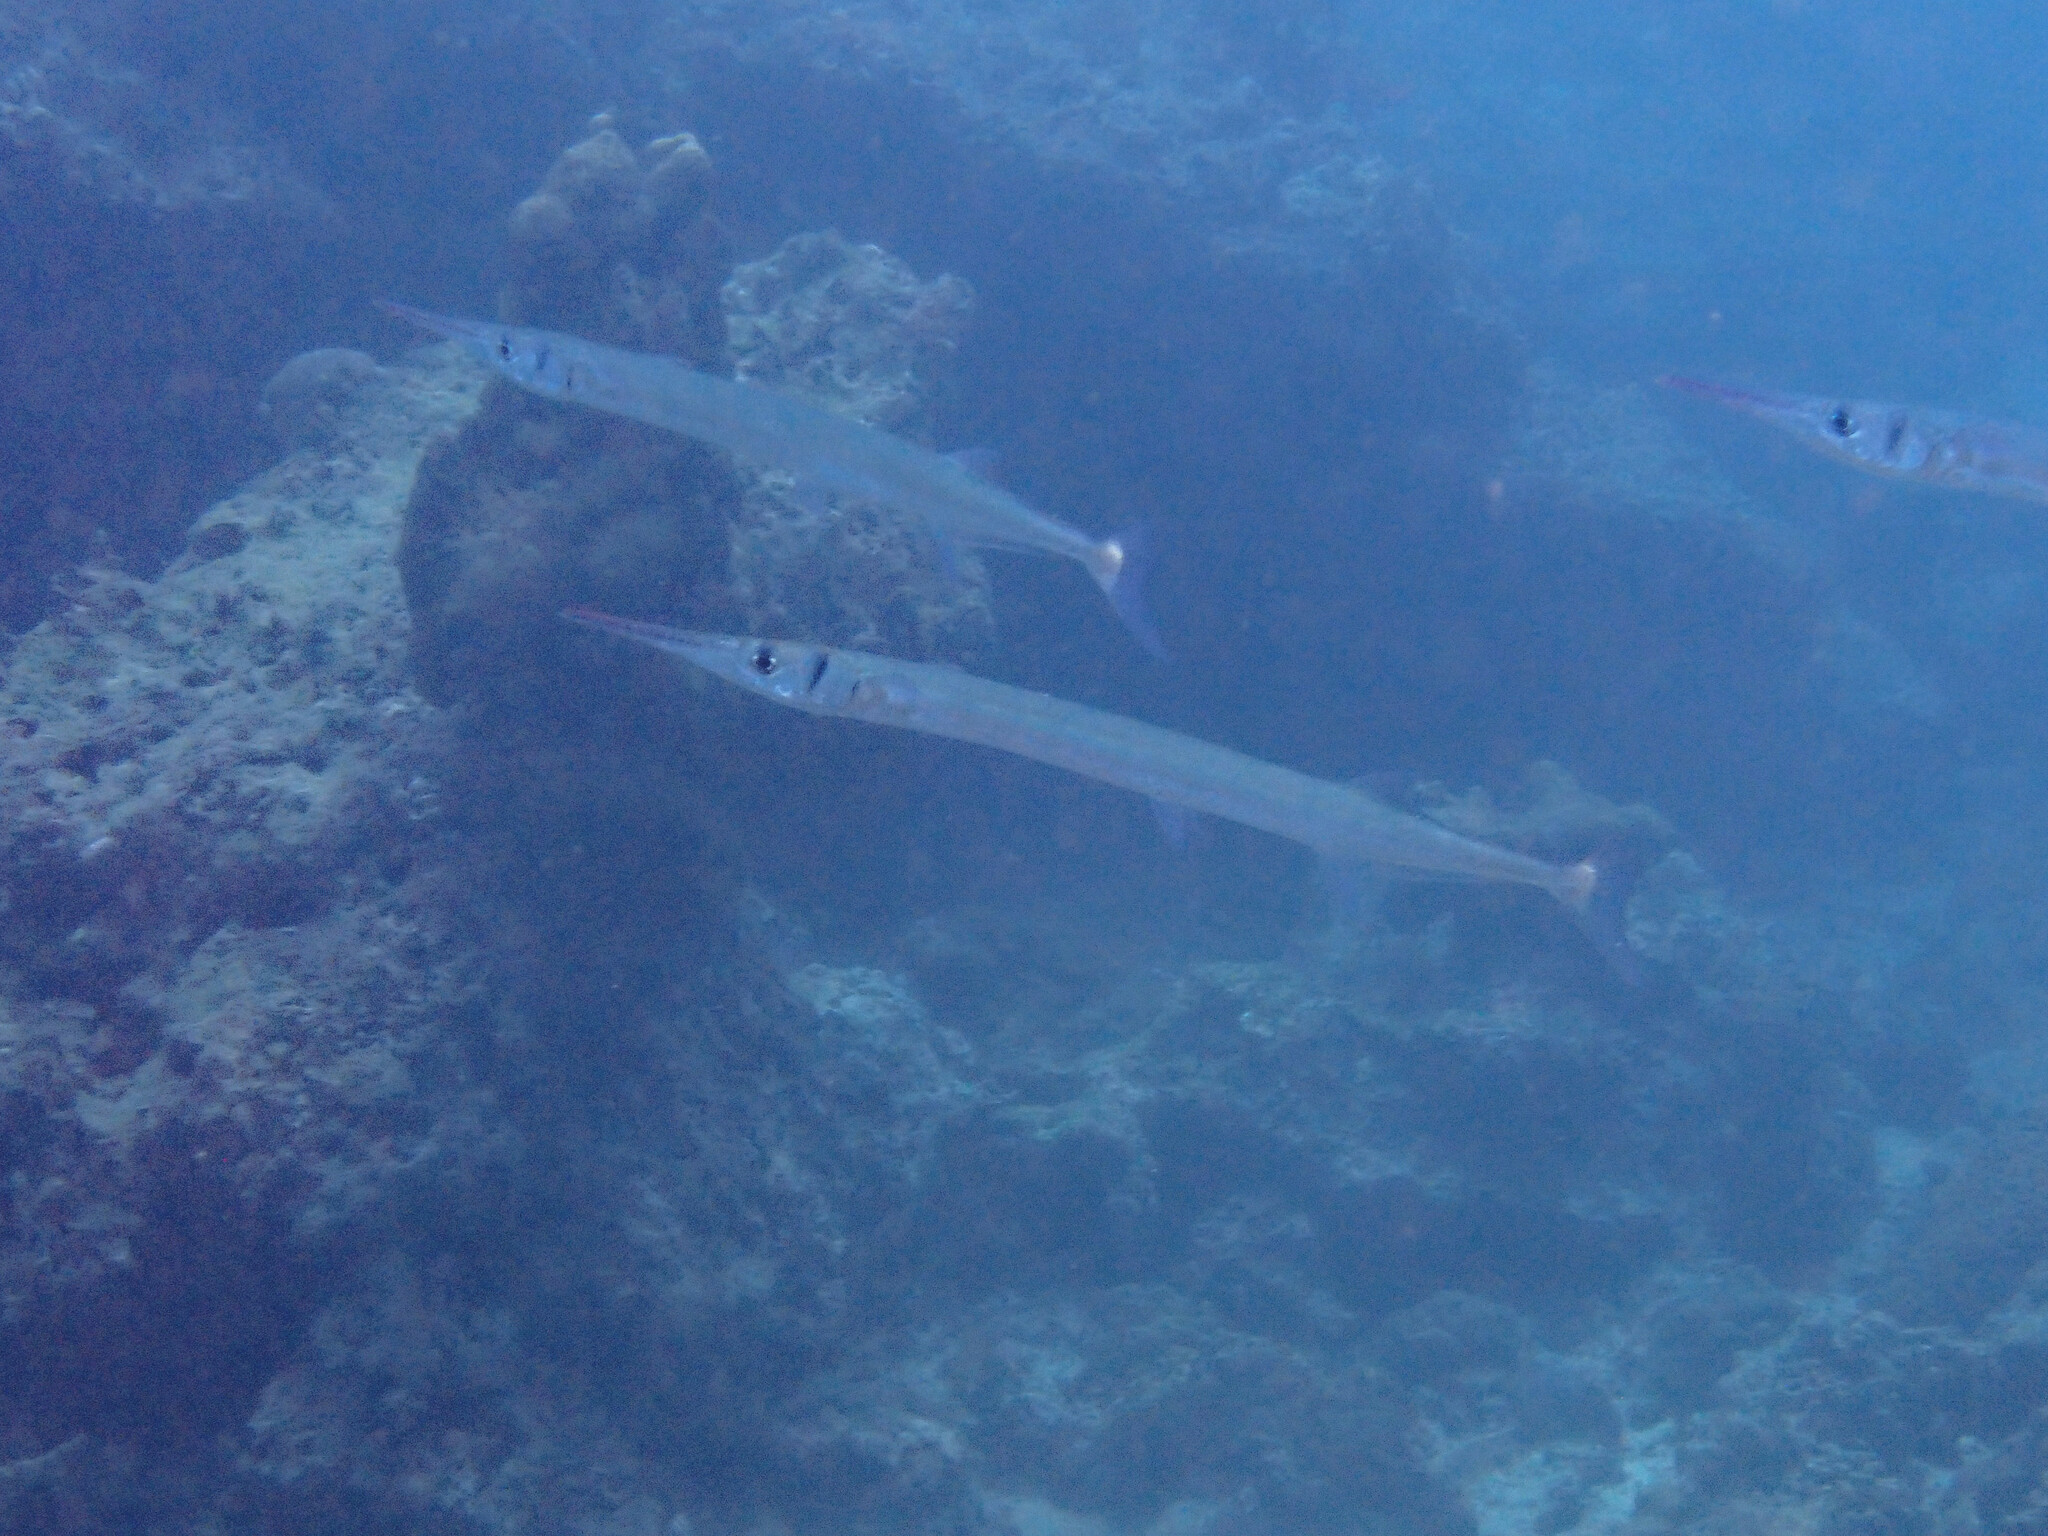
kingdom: Animalia
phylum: Chordata
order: Beloniformes
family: Belonidae
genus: Tylosurus
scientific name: Tylosurus crocodilus
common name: Houndfish
